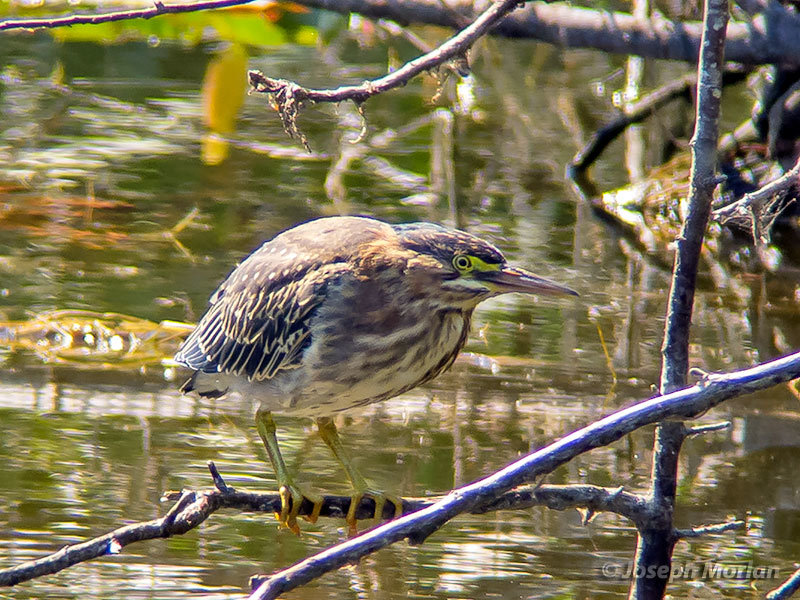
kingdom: Animalia
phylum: Chordata
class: Aves
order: Pelecaniformes
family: Ardeidae
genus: Butorides
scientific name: Butorides virescens
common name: Green heron
